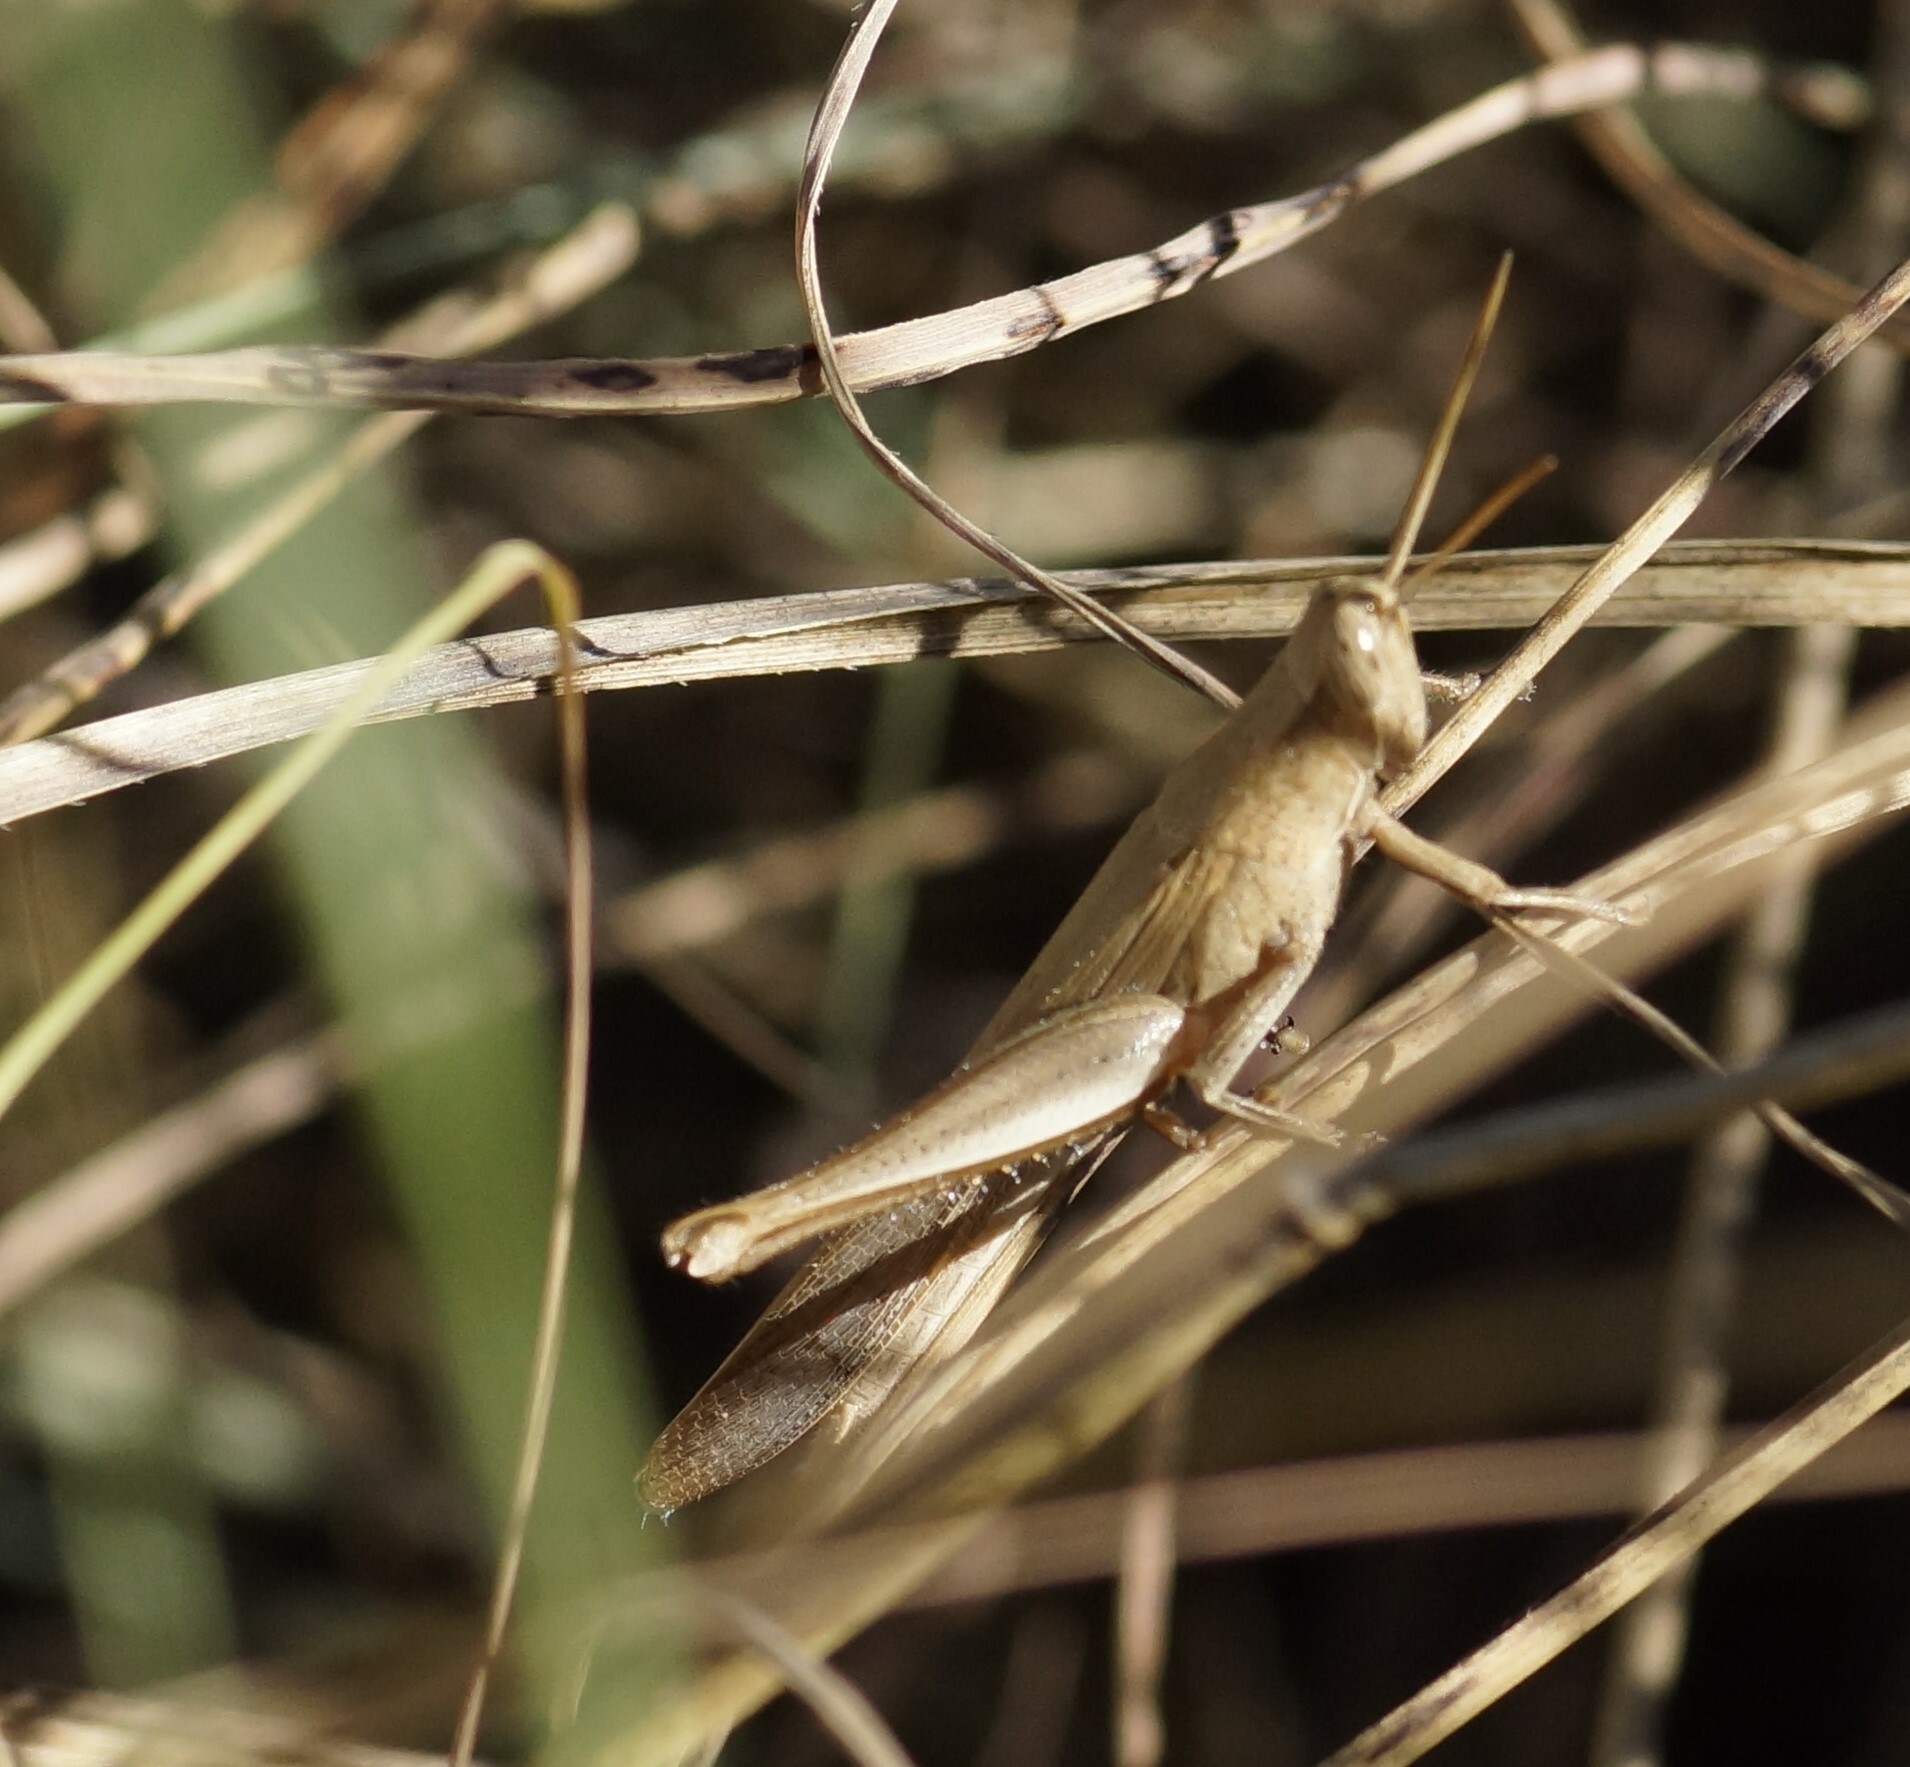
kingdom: Animalia
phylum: Arthropoda
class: Insecta
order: Orthoptera
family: Acrididae
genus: Stenocatantops
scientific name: Stenocatantops vitripennis
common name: Light-brown sharptail
